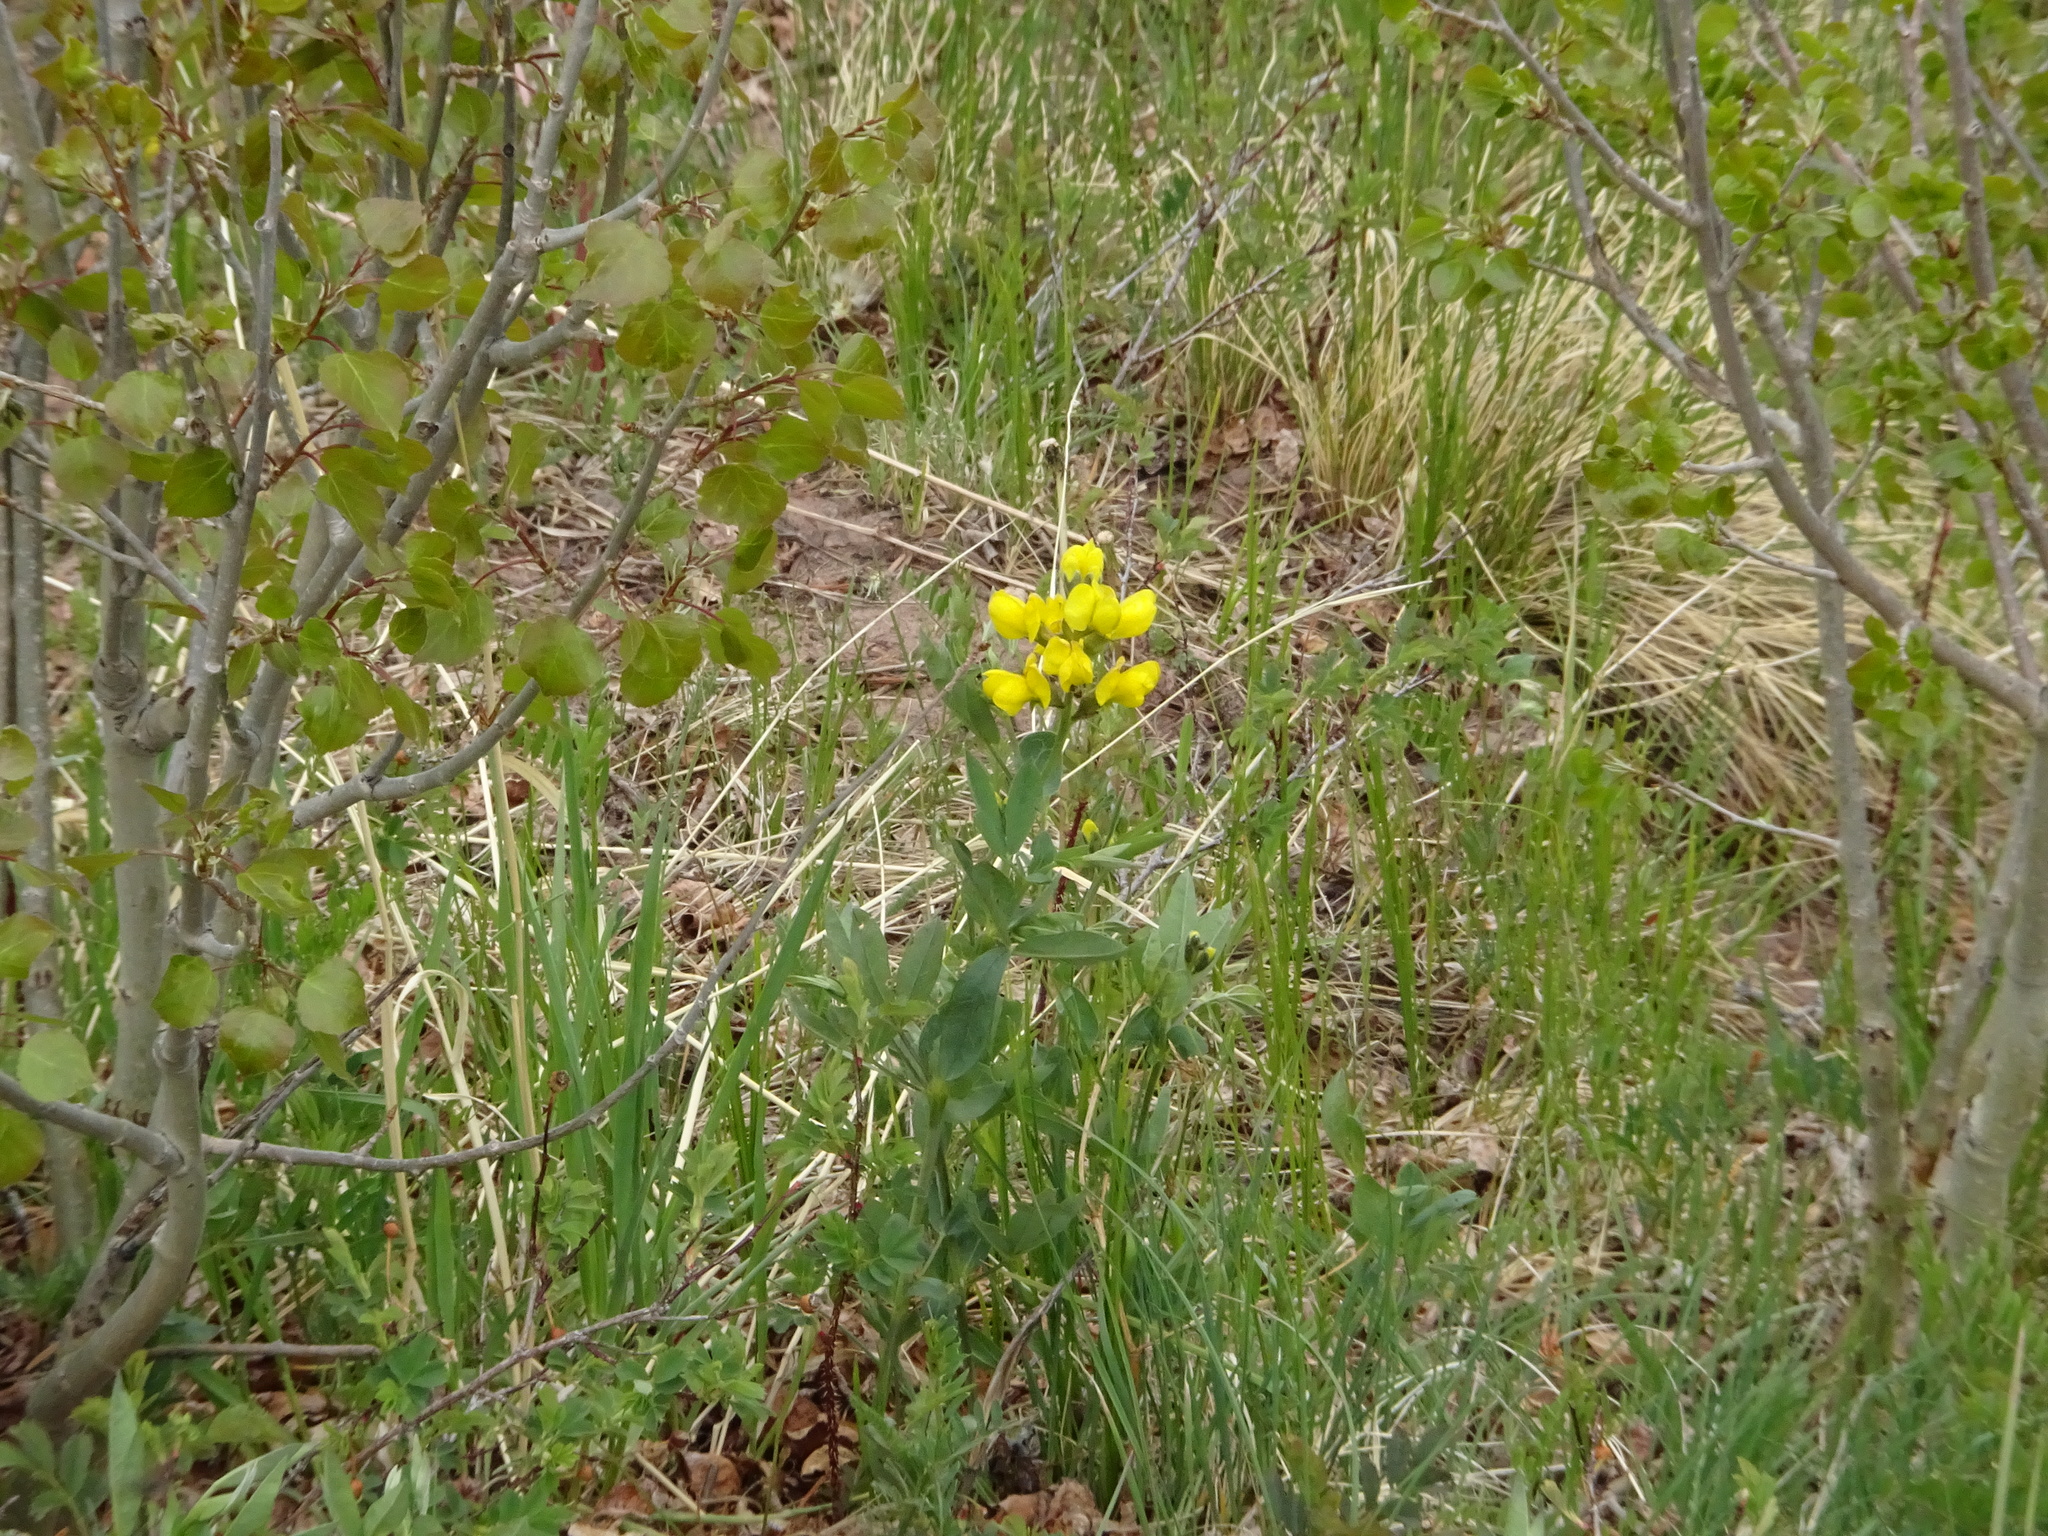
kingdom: Plantae
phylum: Tracheophyta
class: Magnoliopsida
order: Fabales
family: Fabaceae
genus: Thermopsis
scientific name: Thermopsis rhombifolia
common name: Circle-pod-pea
